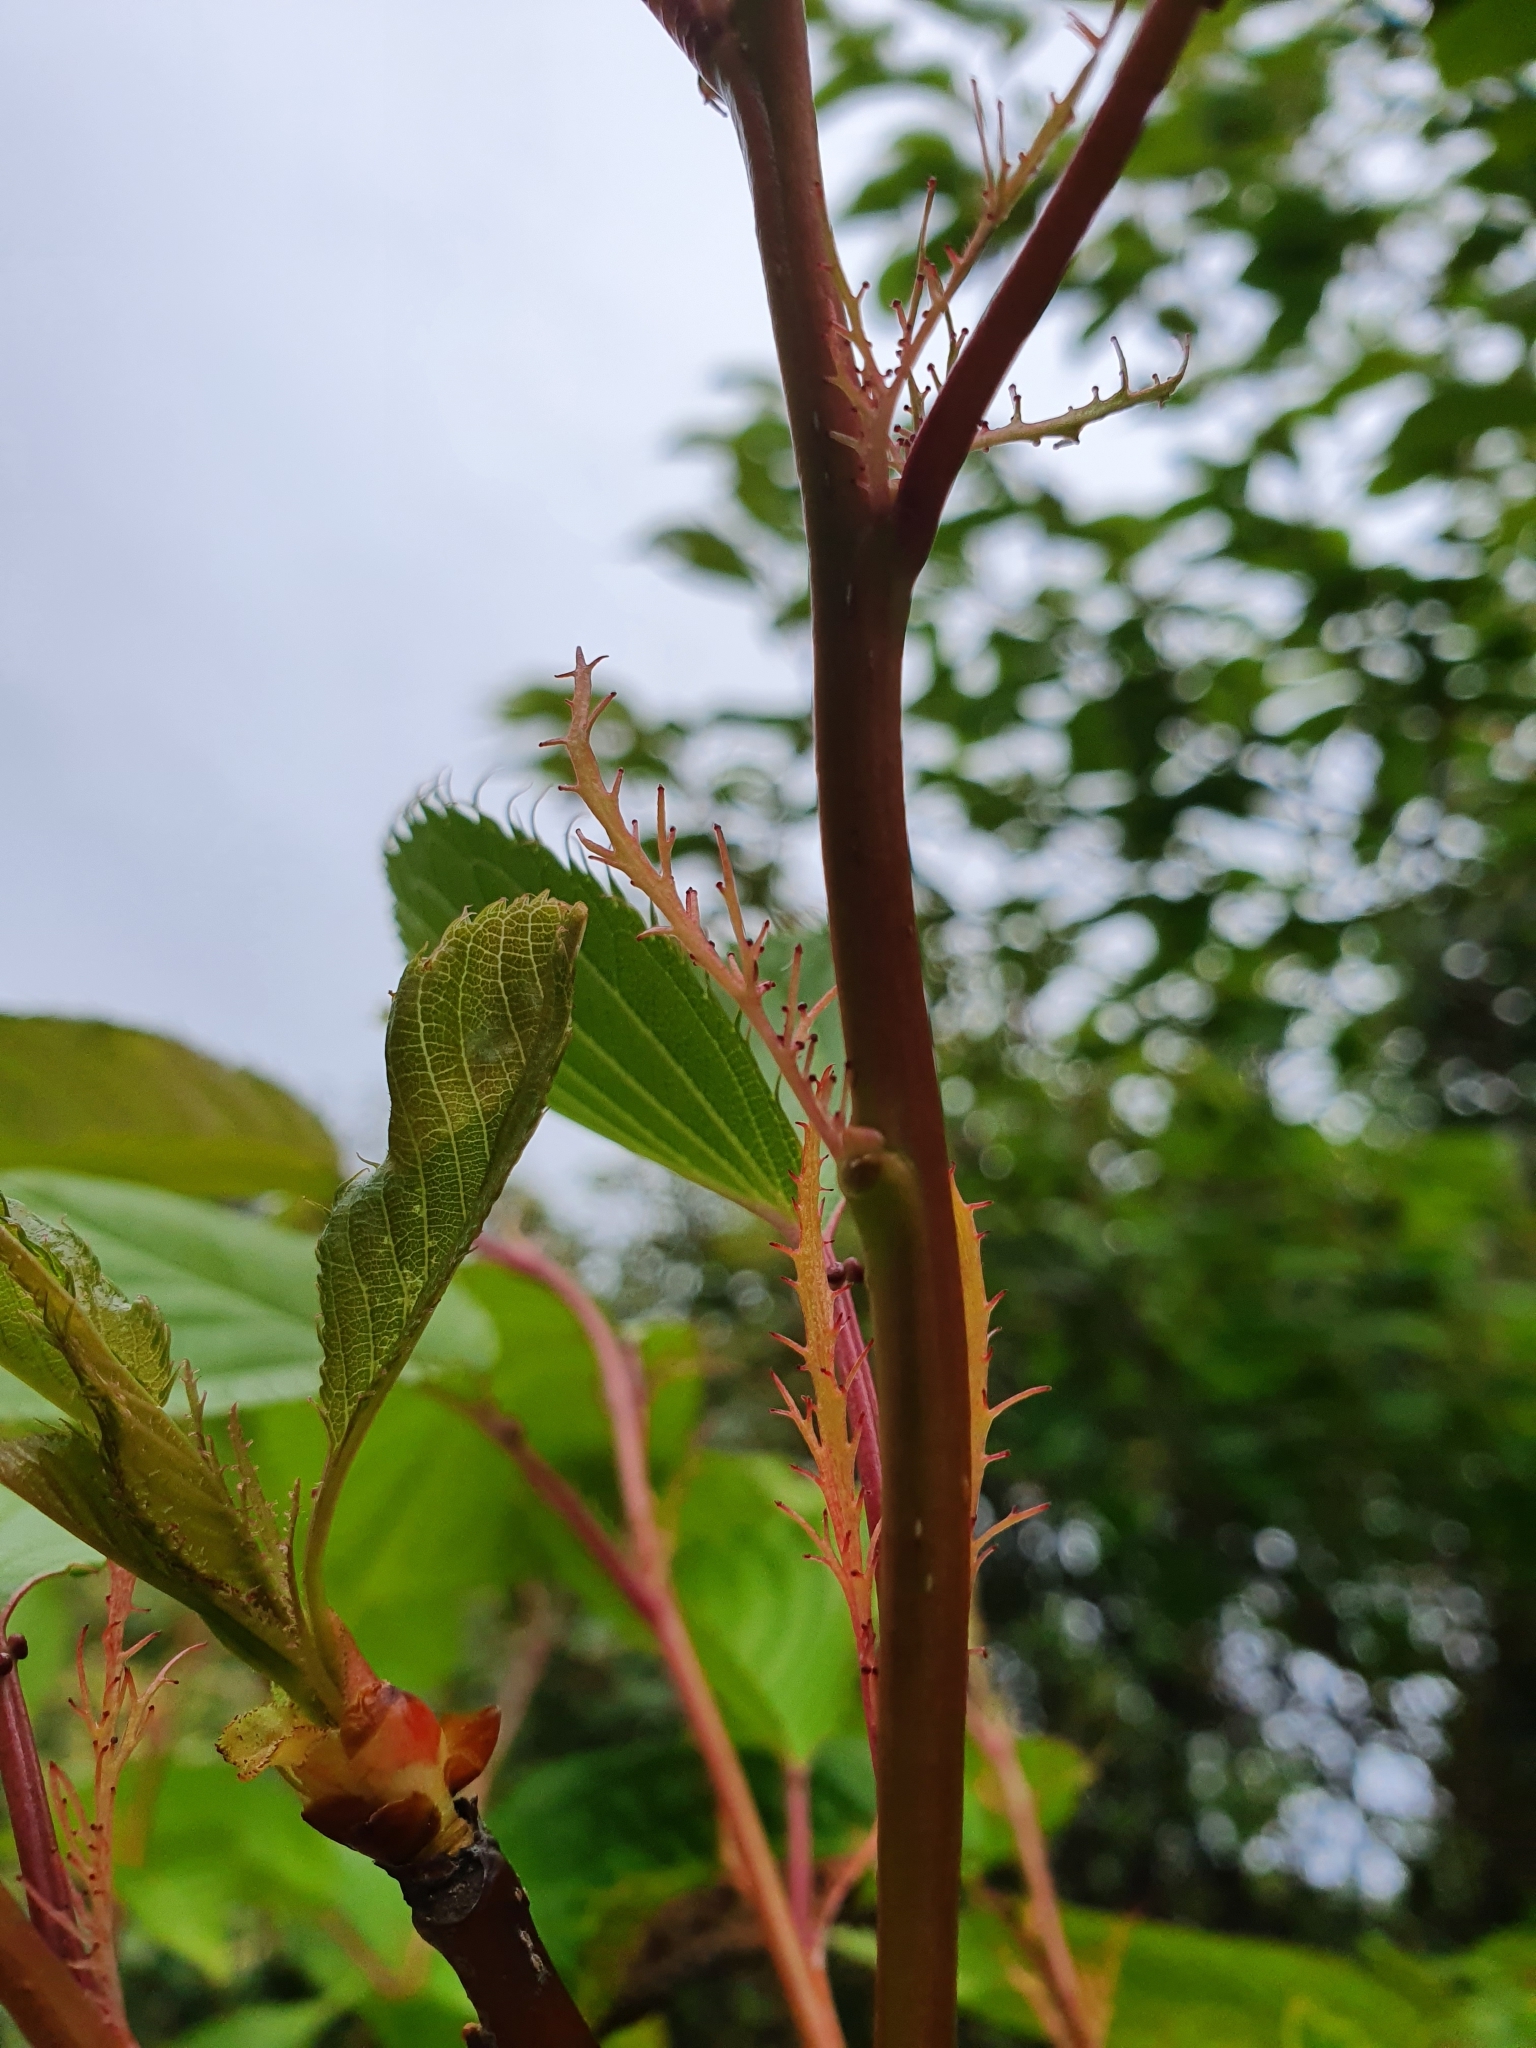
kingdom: Plantae
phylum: Tracheophyta
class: Magnoliopsida
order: Rosales
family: Rosaceae
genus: Prunus
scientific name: Prunus campanulata
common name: Taiwan flowering cherry
